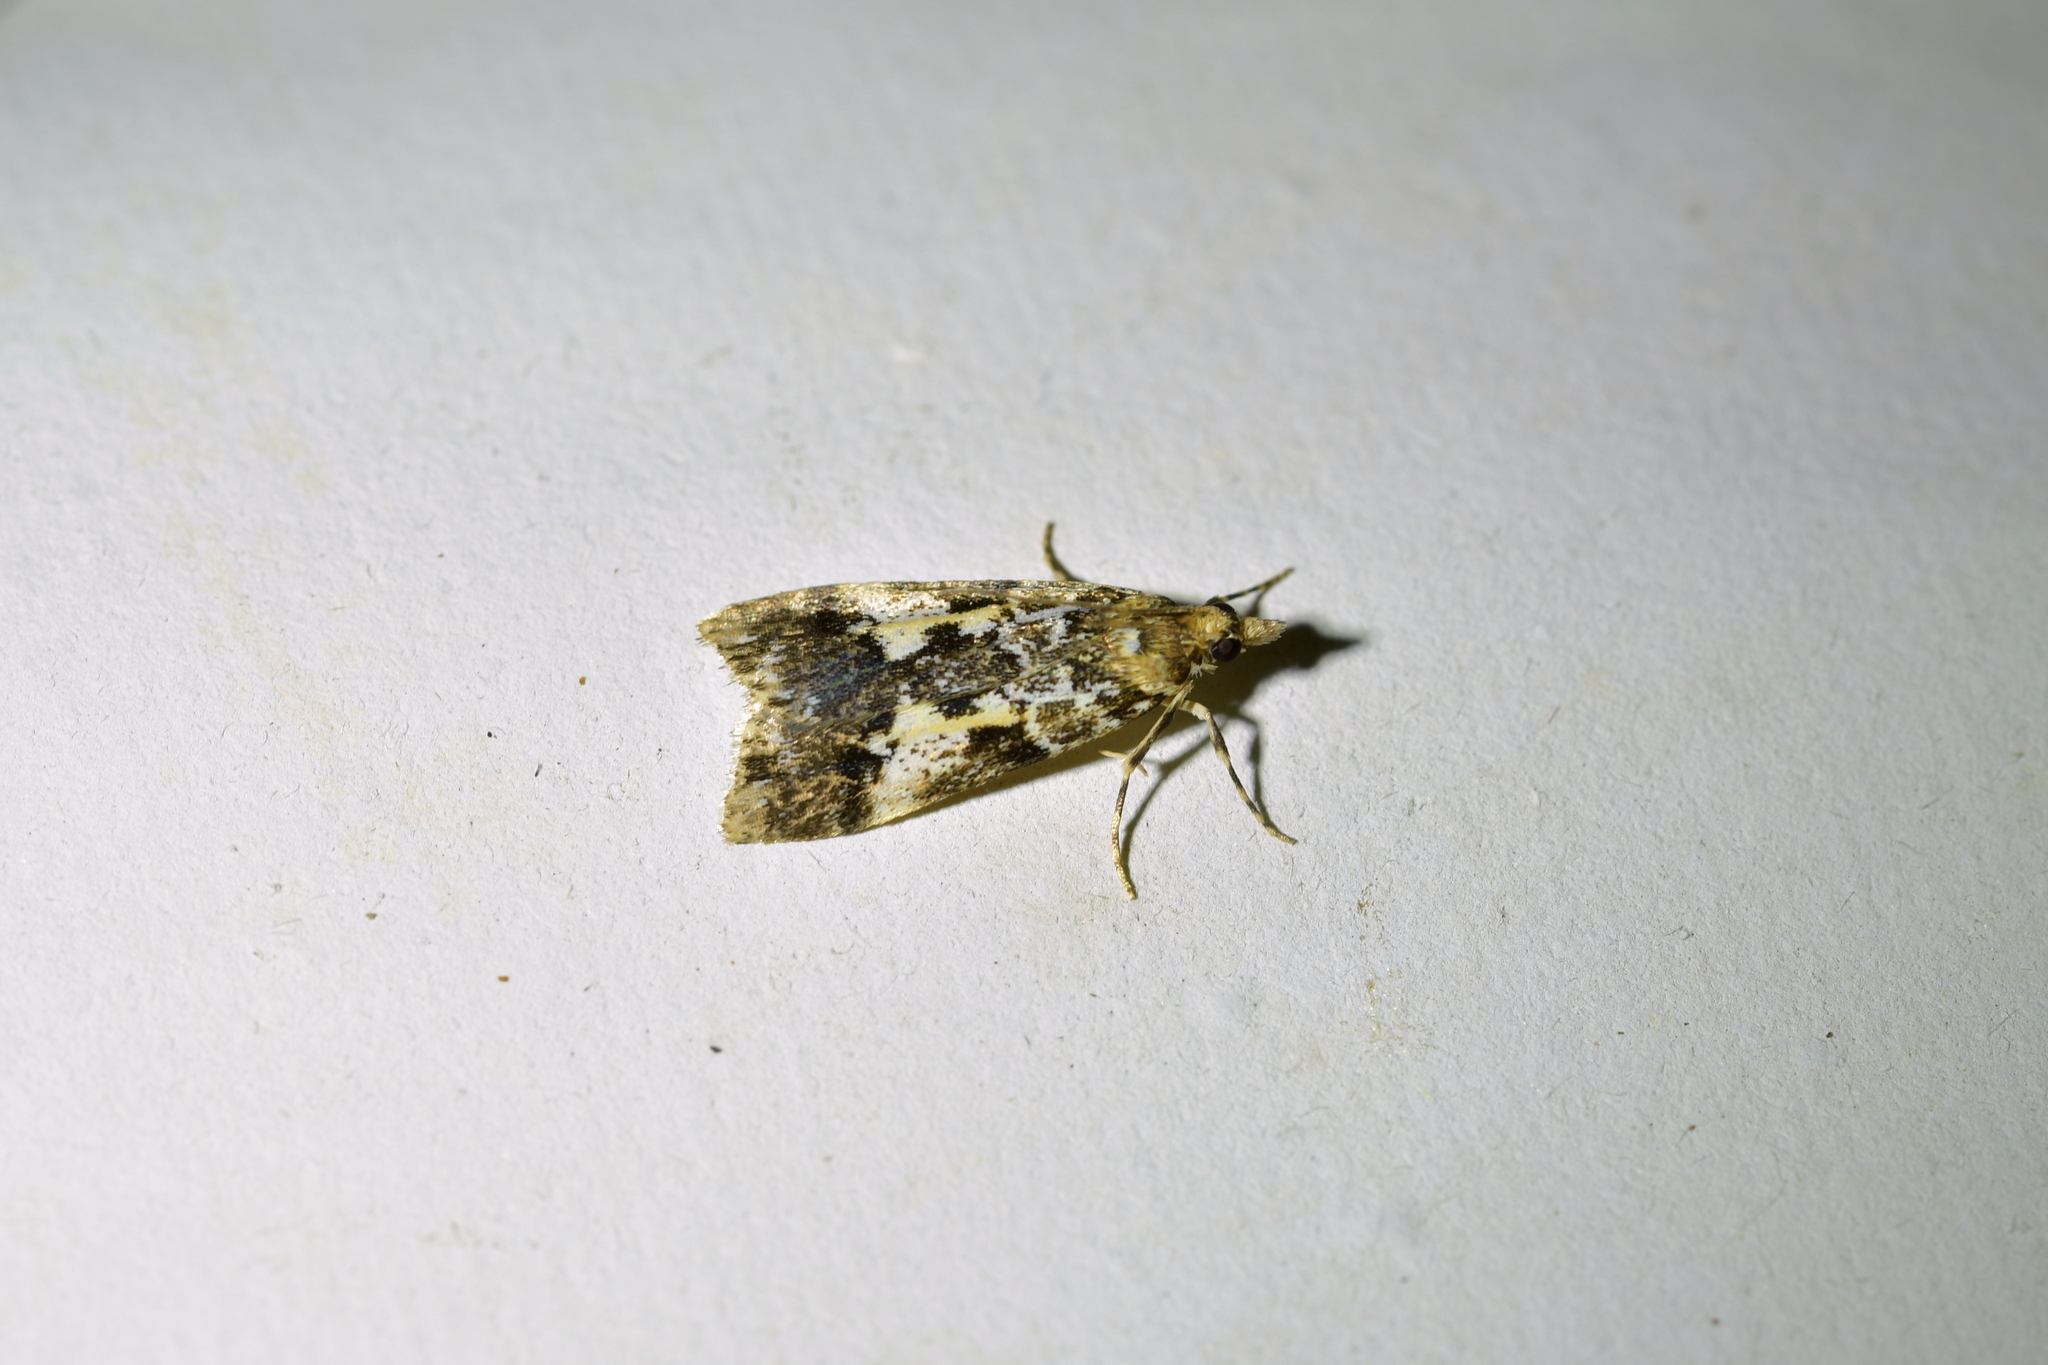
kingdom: Animalia
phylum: Arthropoda
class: Insecta
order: Lepidoptera
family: Crambidae
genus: Eudonia
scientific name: Eudonia characta
